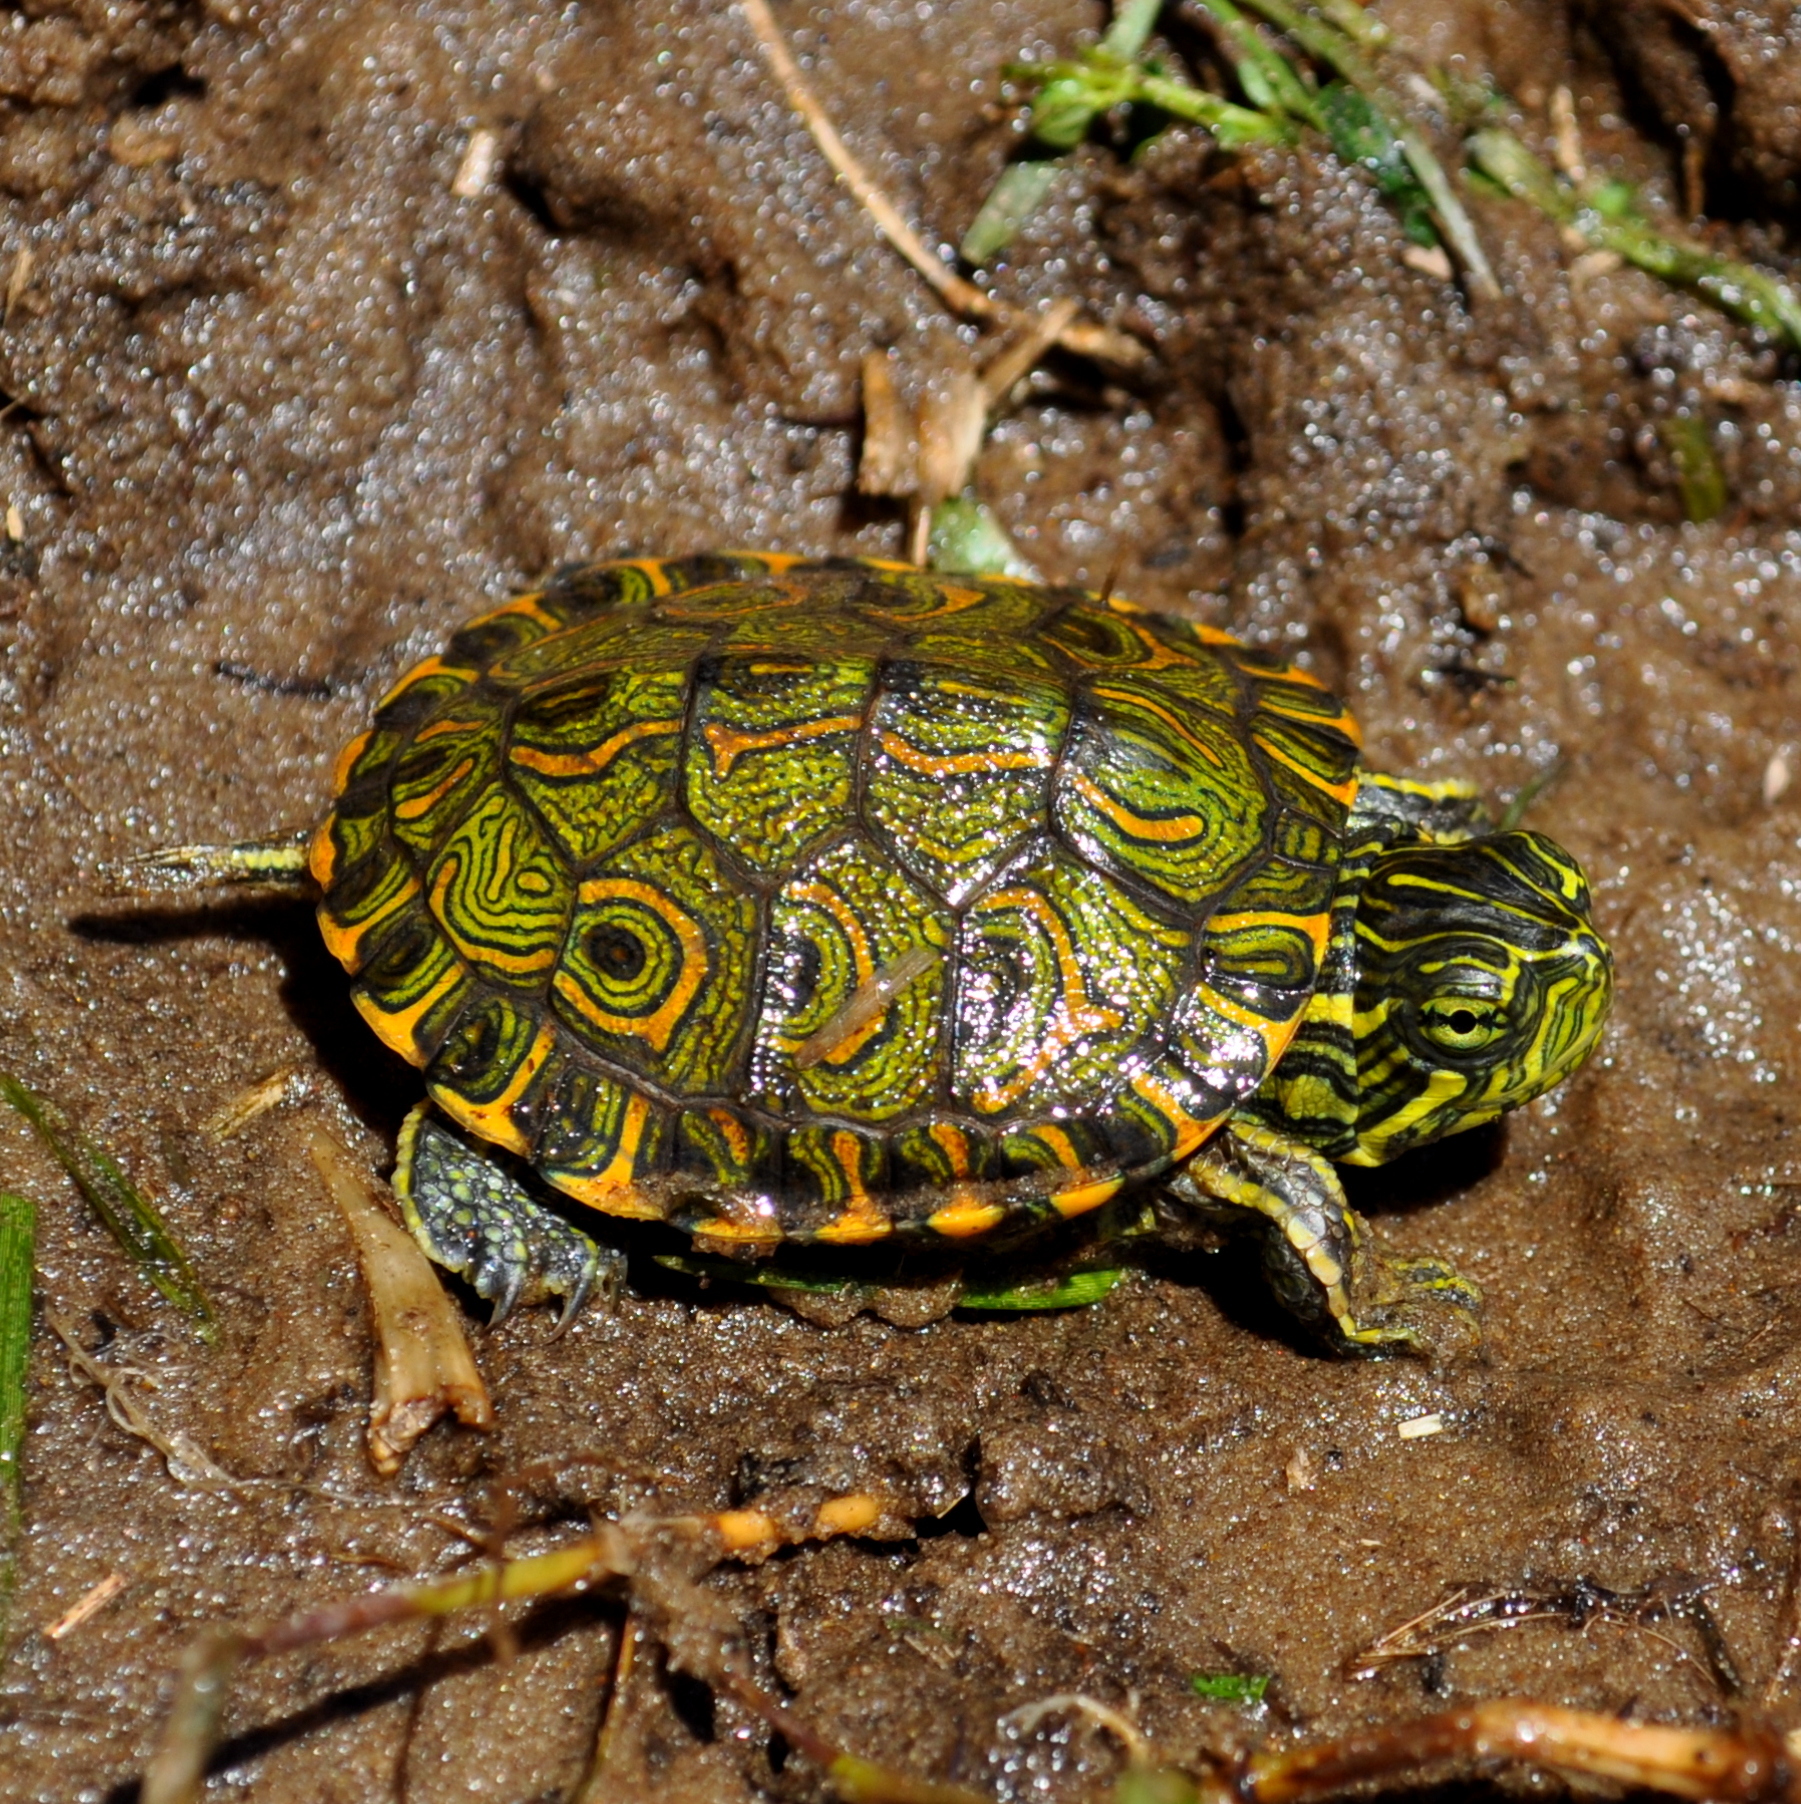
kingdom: Animalia
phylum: Chordata
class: Testudines
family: Emydidae
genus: Trachemys
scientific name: Trachemys dorbigni
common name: Black-bellied slider
